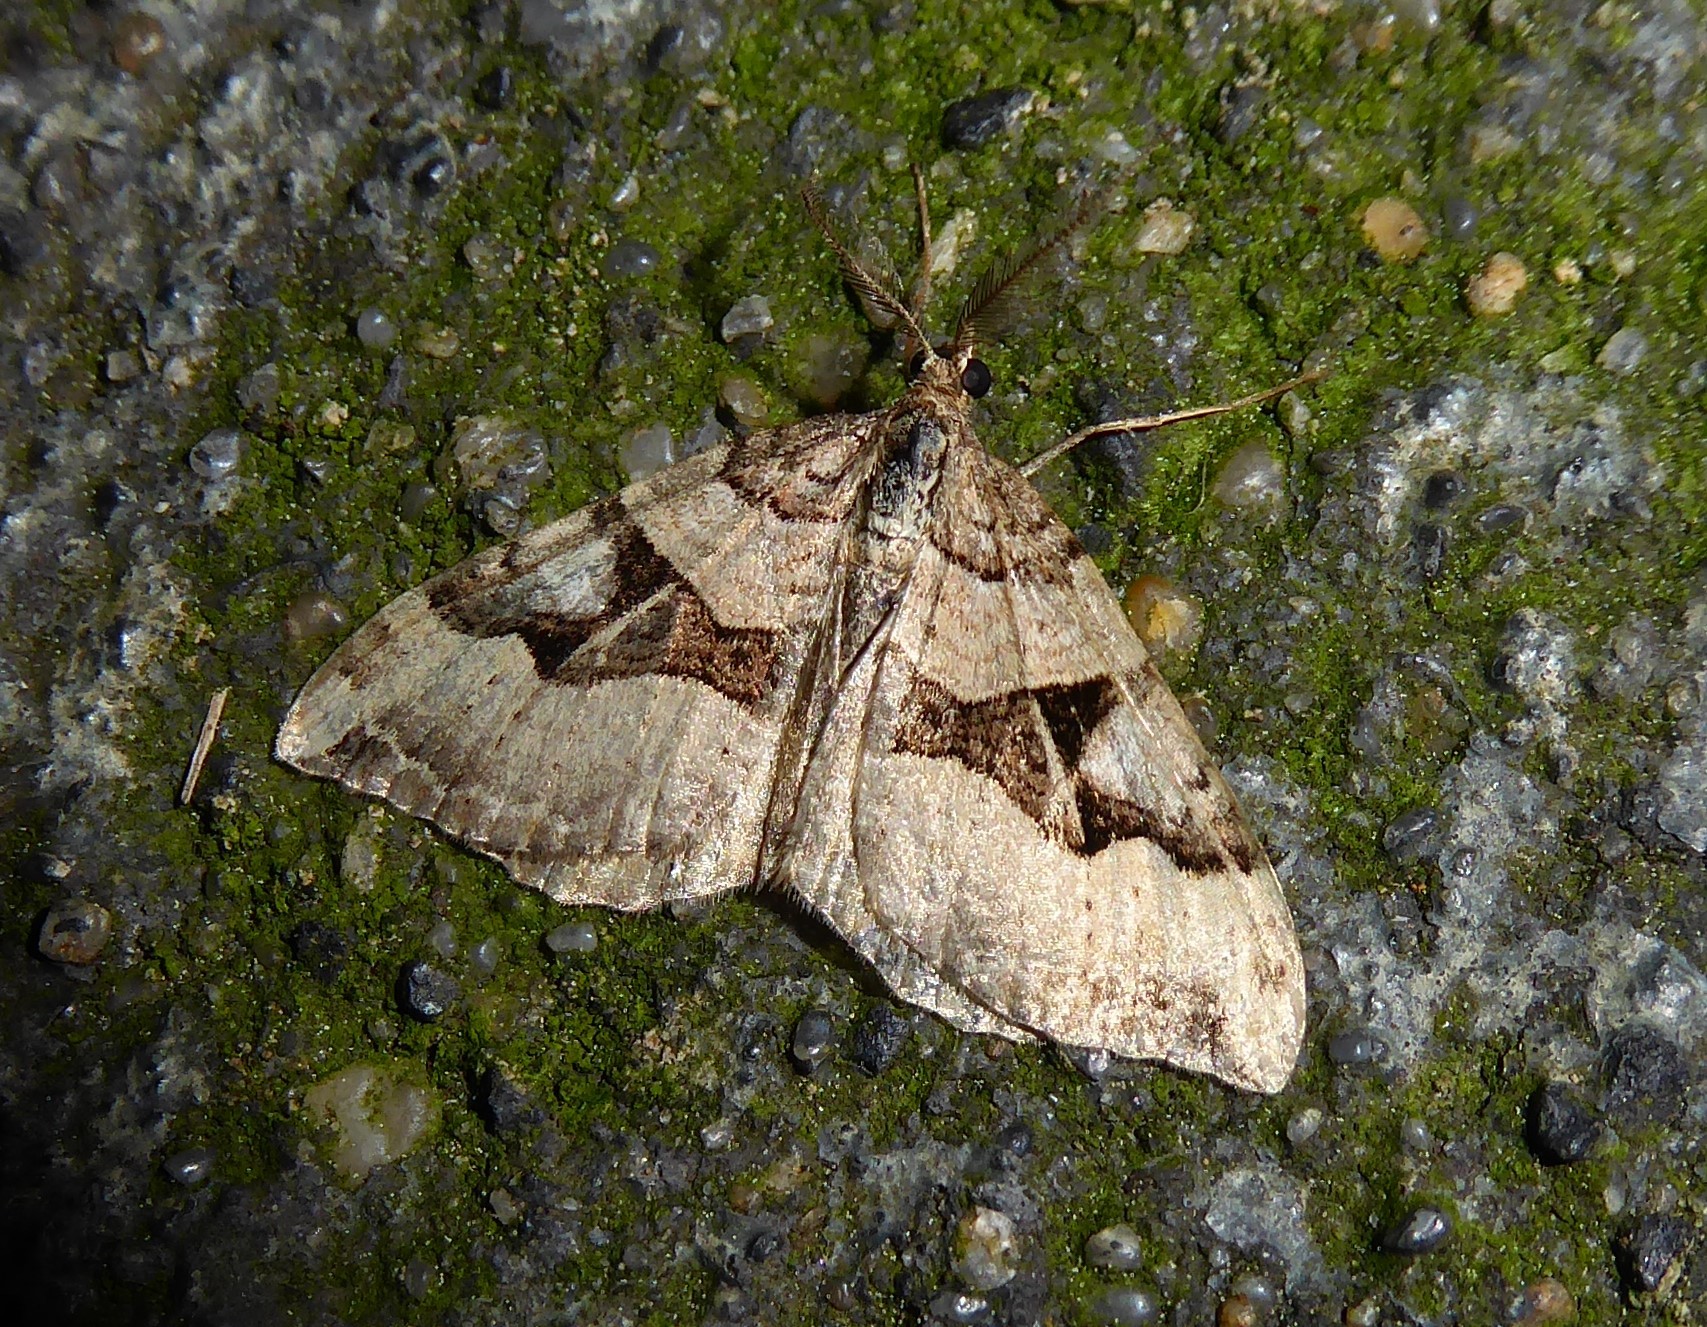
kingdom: Animalia
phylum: Arthropoda
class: Insecta
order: Lepidoptera
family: Geometridae
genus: Xanthorhoe
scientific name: Xanthorhoe semifissata
